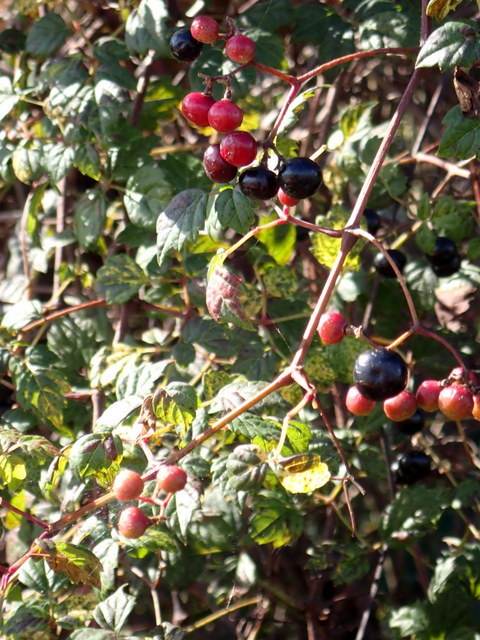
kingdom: Plantae
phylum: Tracheophyta
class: Magnoliopsida
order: Vitales
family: Vitaceae
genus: Nekemias
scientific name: Nekemias arborea
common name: Peppervine
